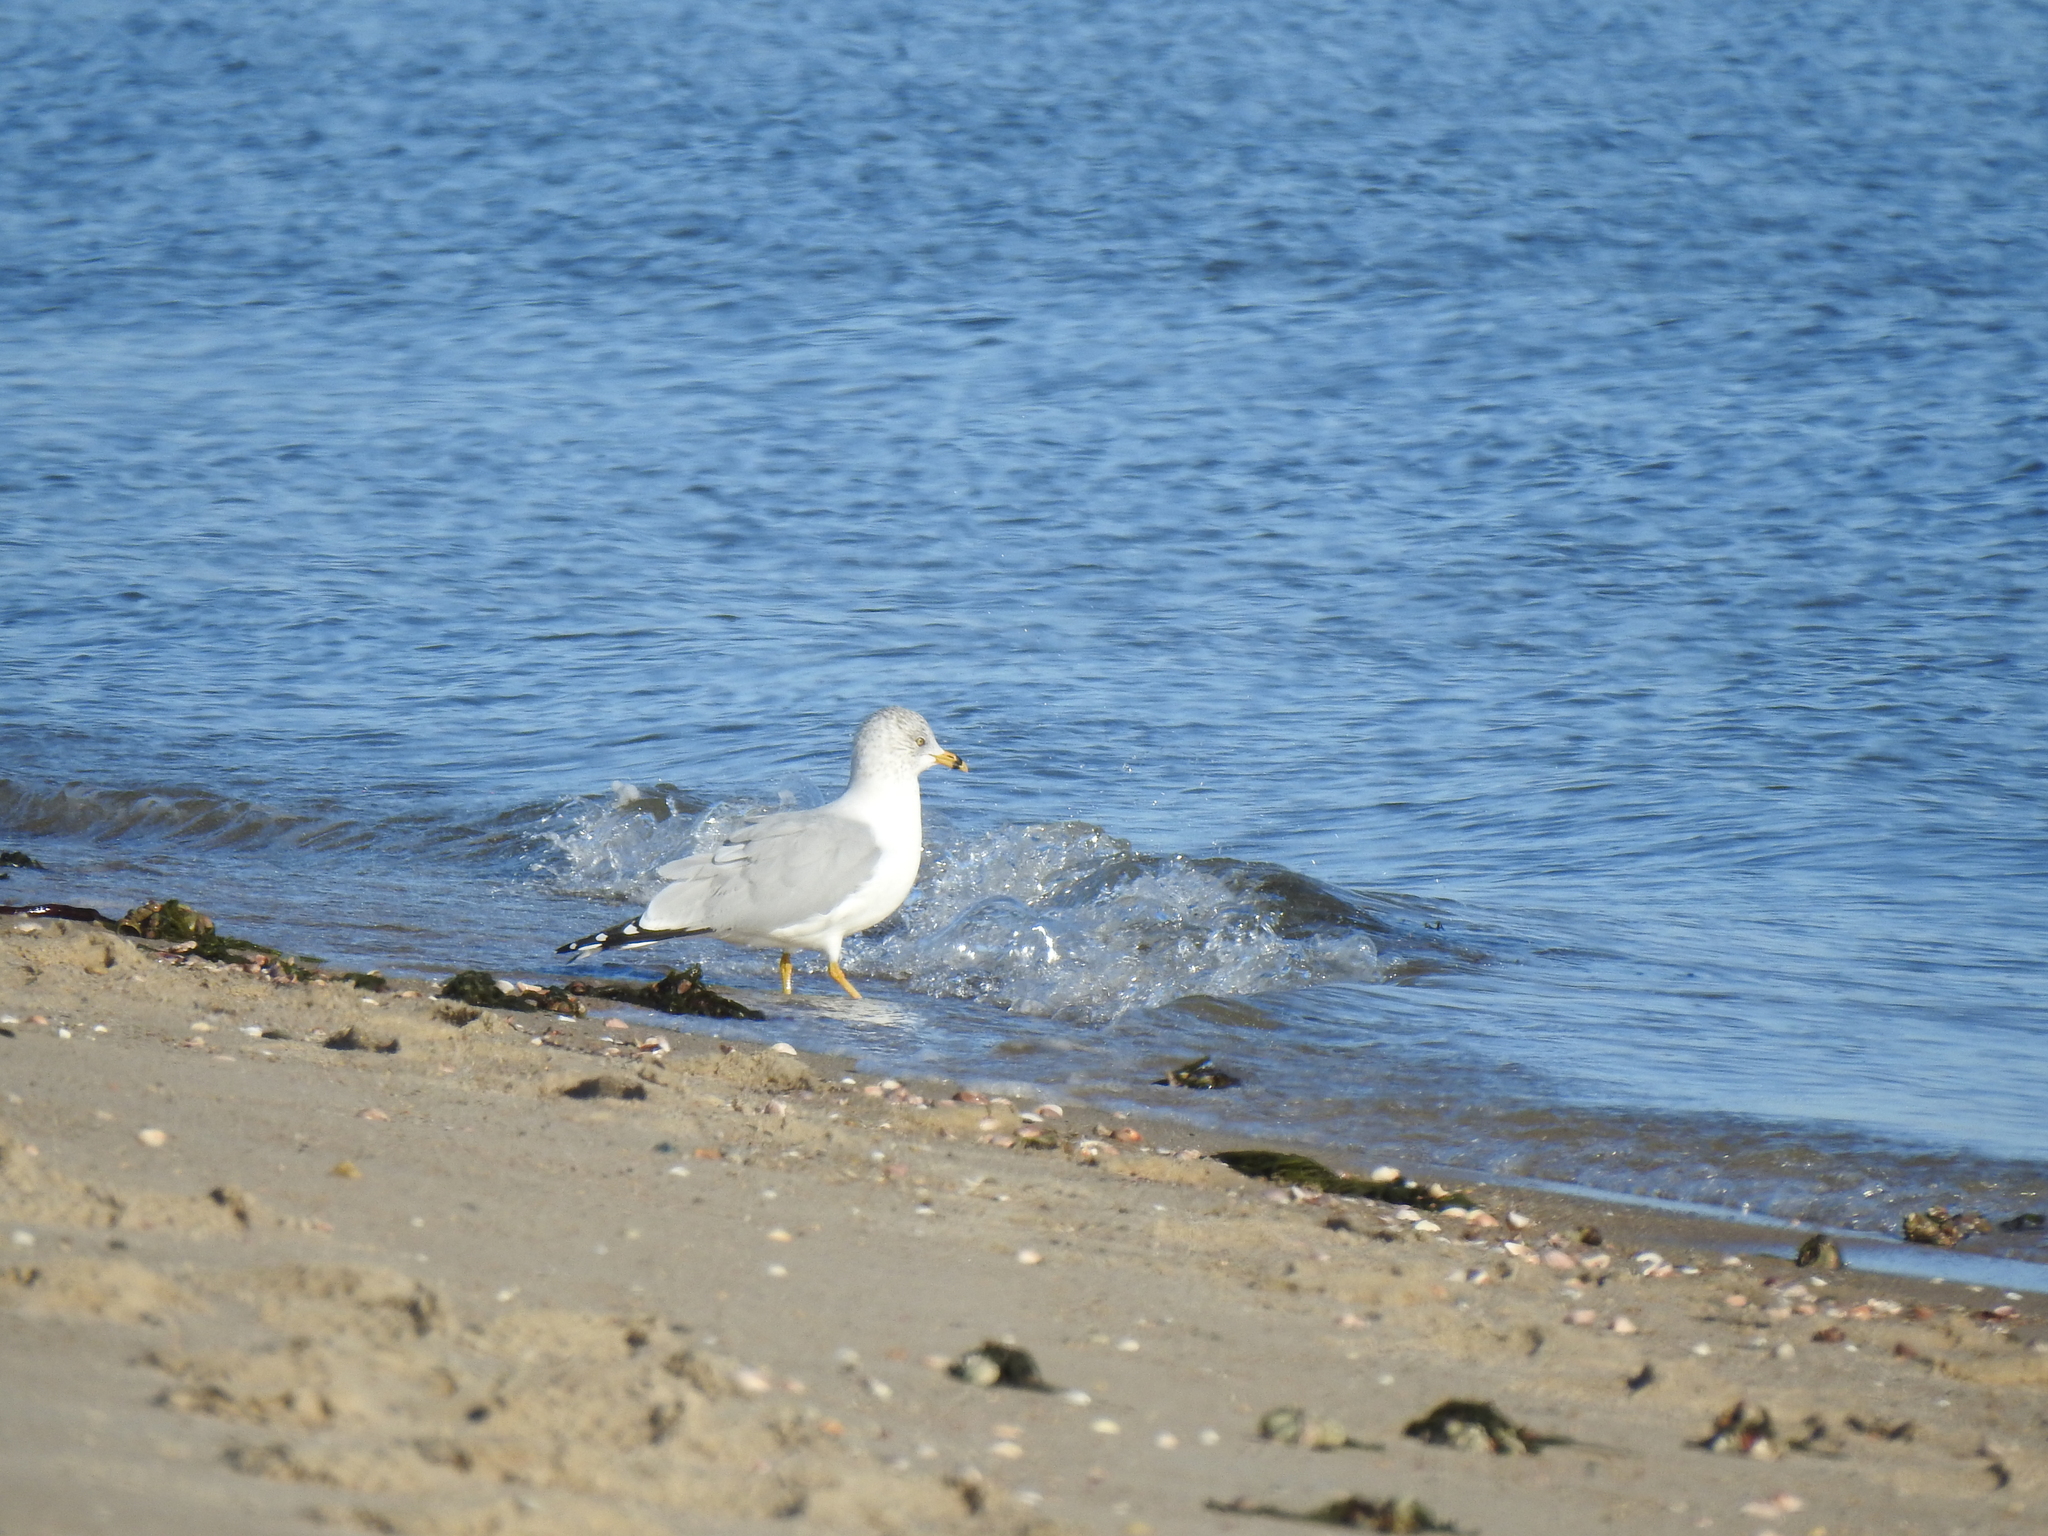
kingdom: Animalia
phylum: Chordata
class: Aves
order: Charadriiformes
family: Laridae
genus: Larus
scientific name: Larus delawarensis
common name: Ring-billed gull
